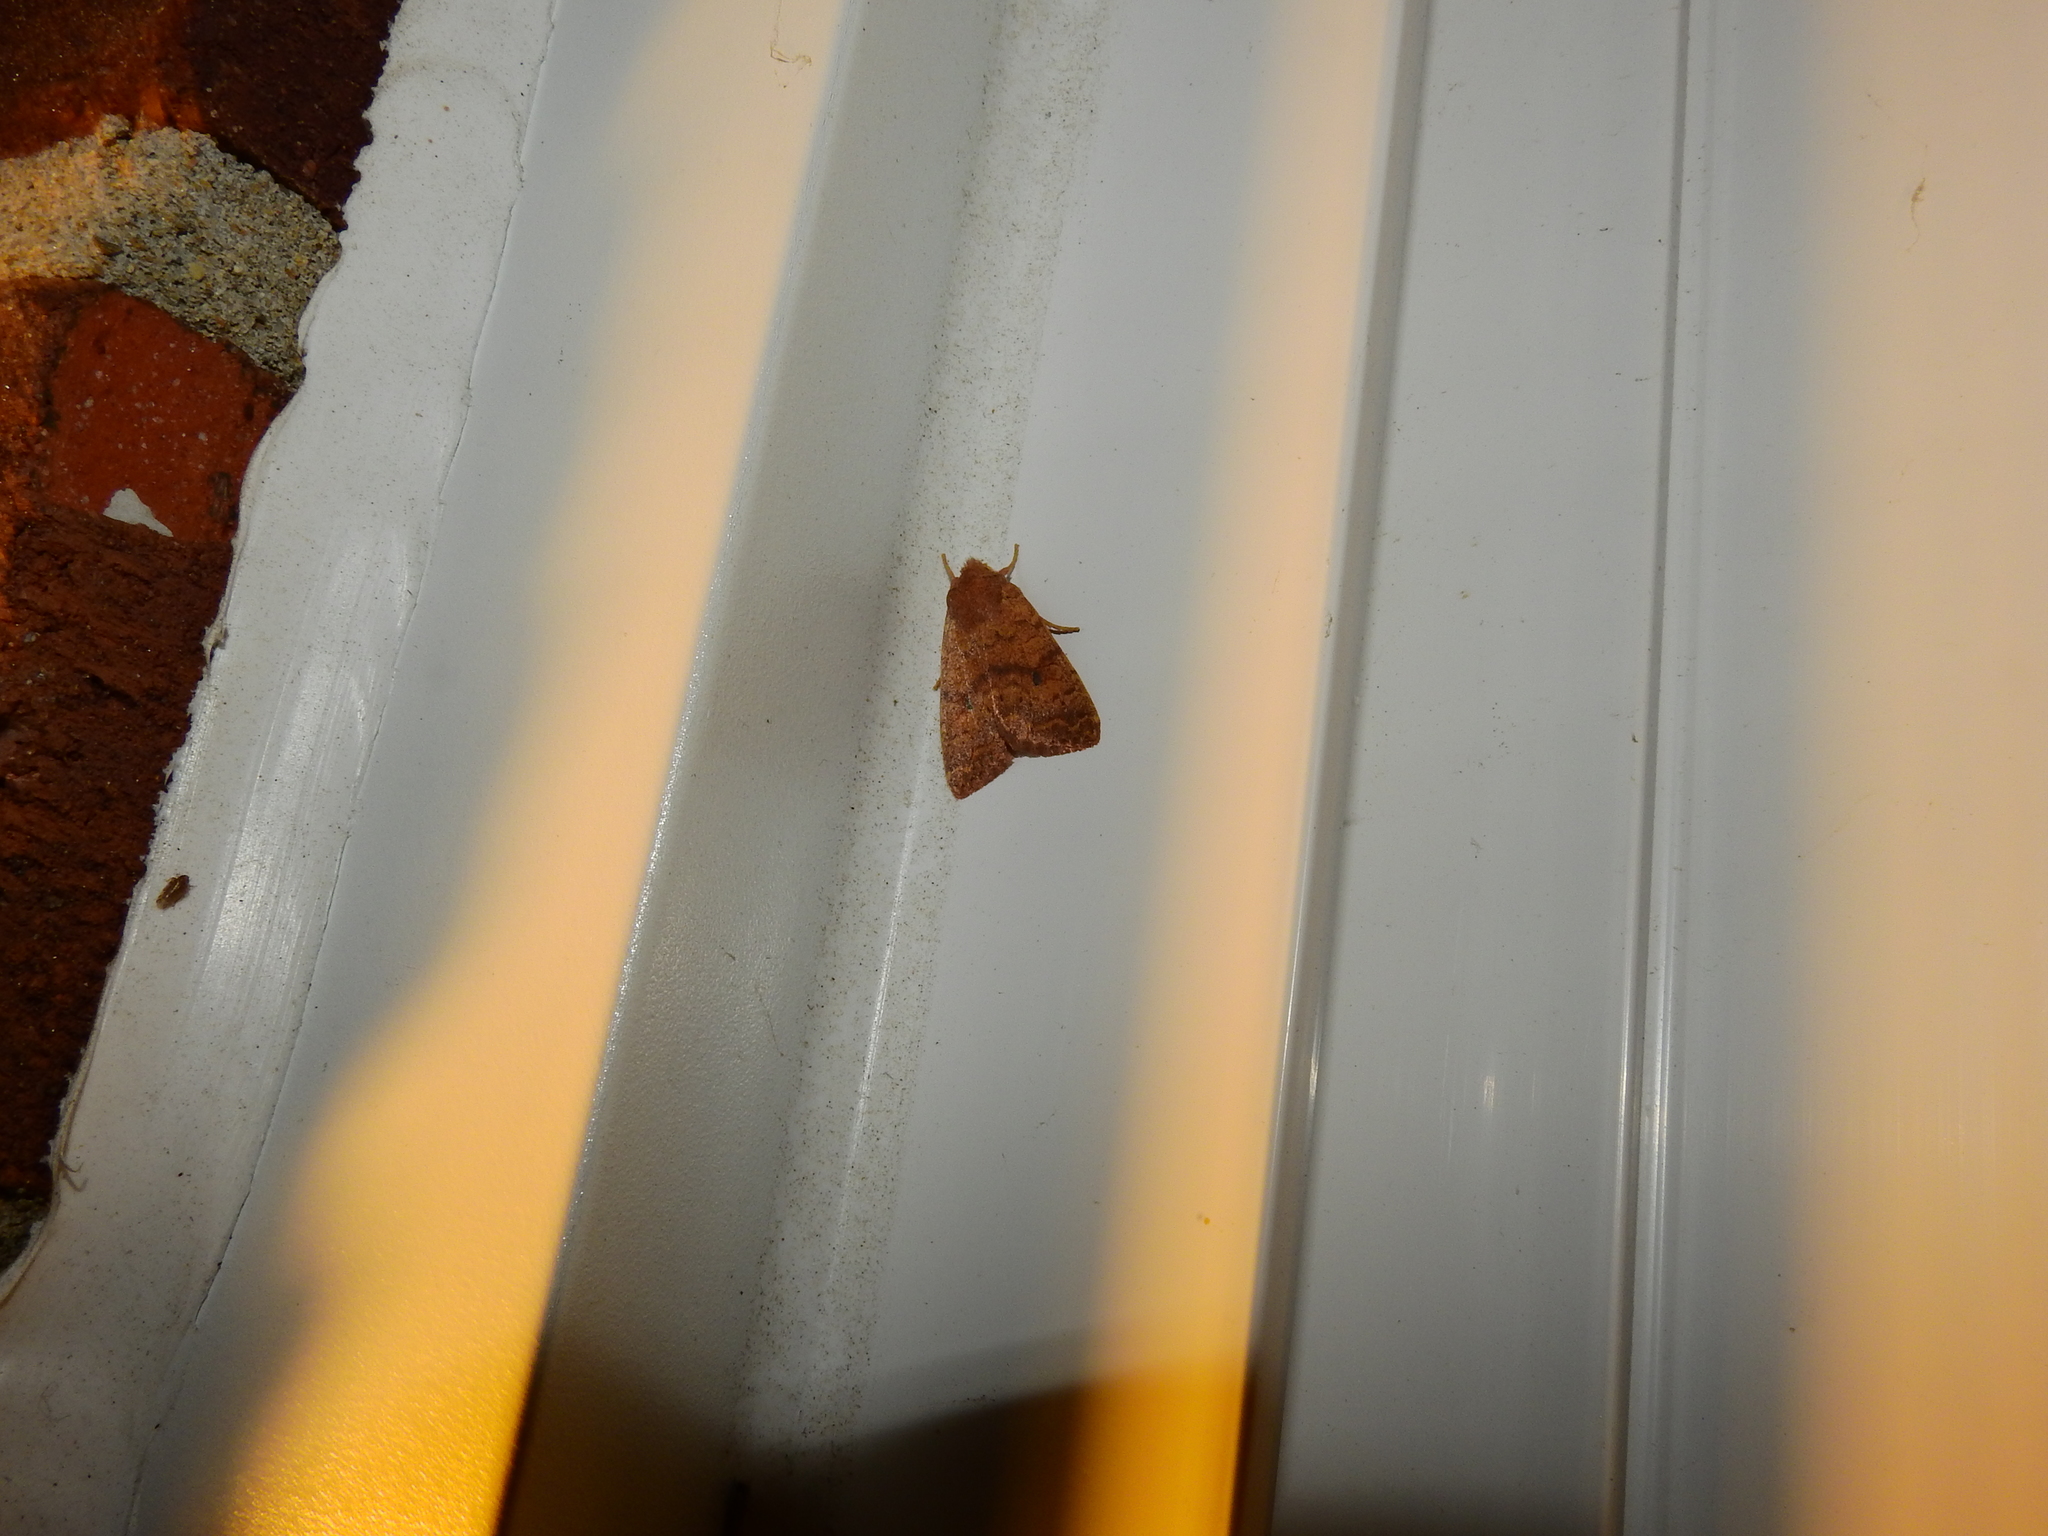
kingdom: Animalia
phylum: Arthropoda
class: Insecta
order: Lepidoptera
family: Noctuidae
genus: Agrochola
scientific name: Agrochola bicolorago
